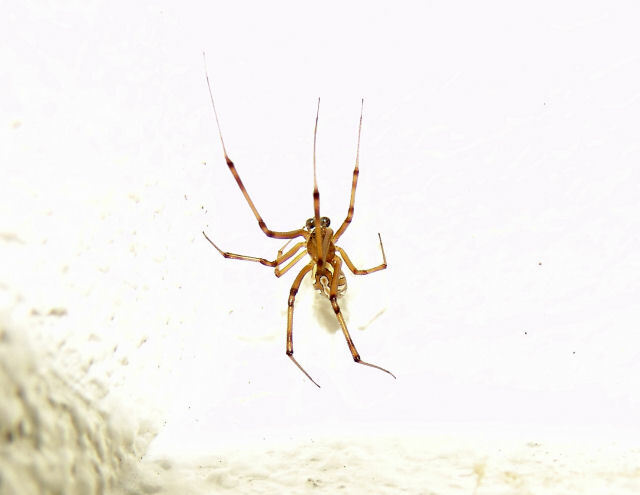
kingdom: Animalia
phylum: Arthropoda
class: Arachnida
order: Araneae
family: Theridiidae
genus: Latrodectus
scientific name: Latrodectus hesperus
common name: Western black widow
